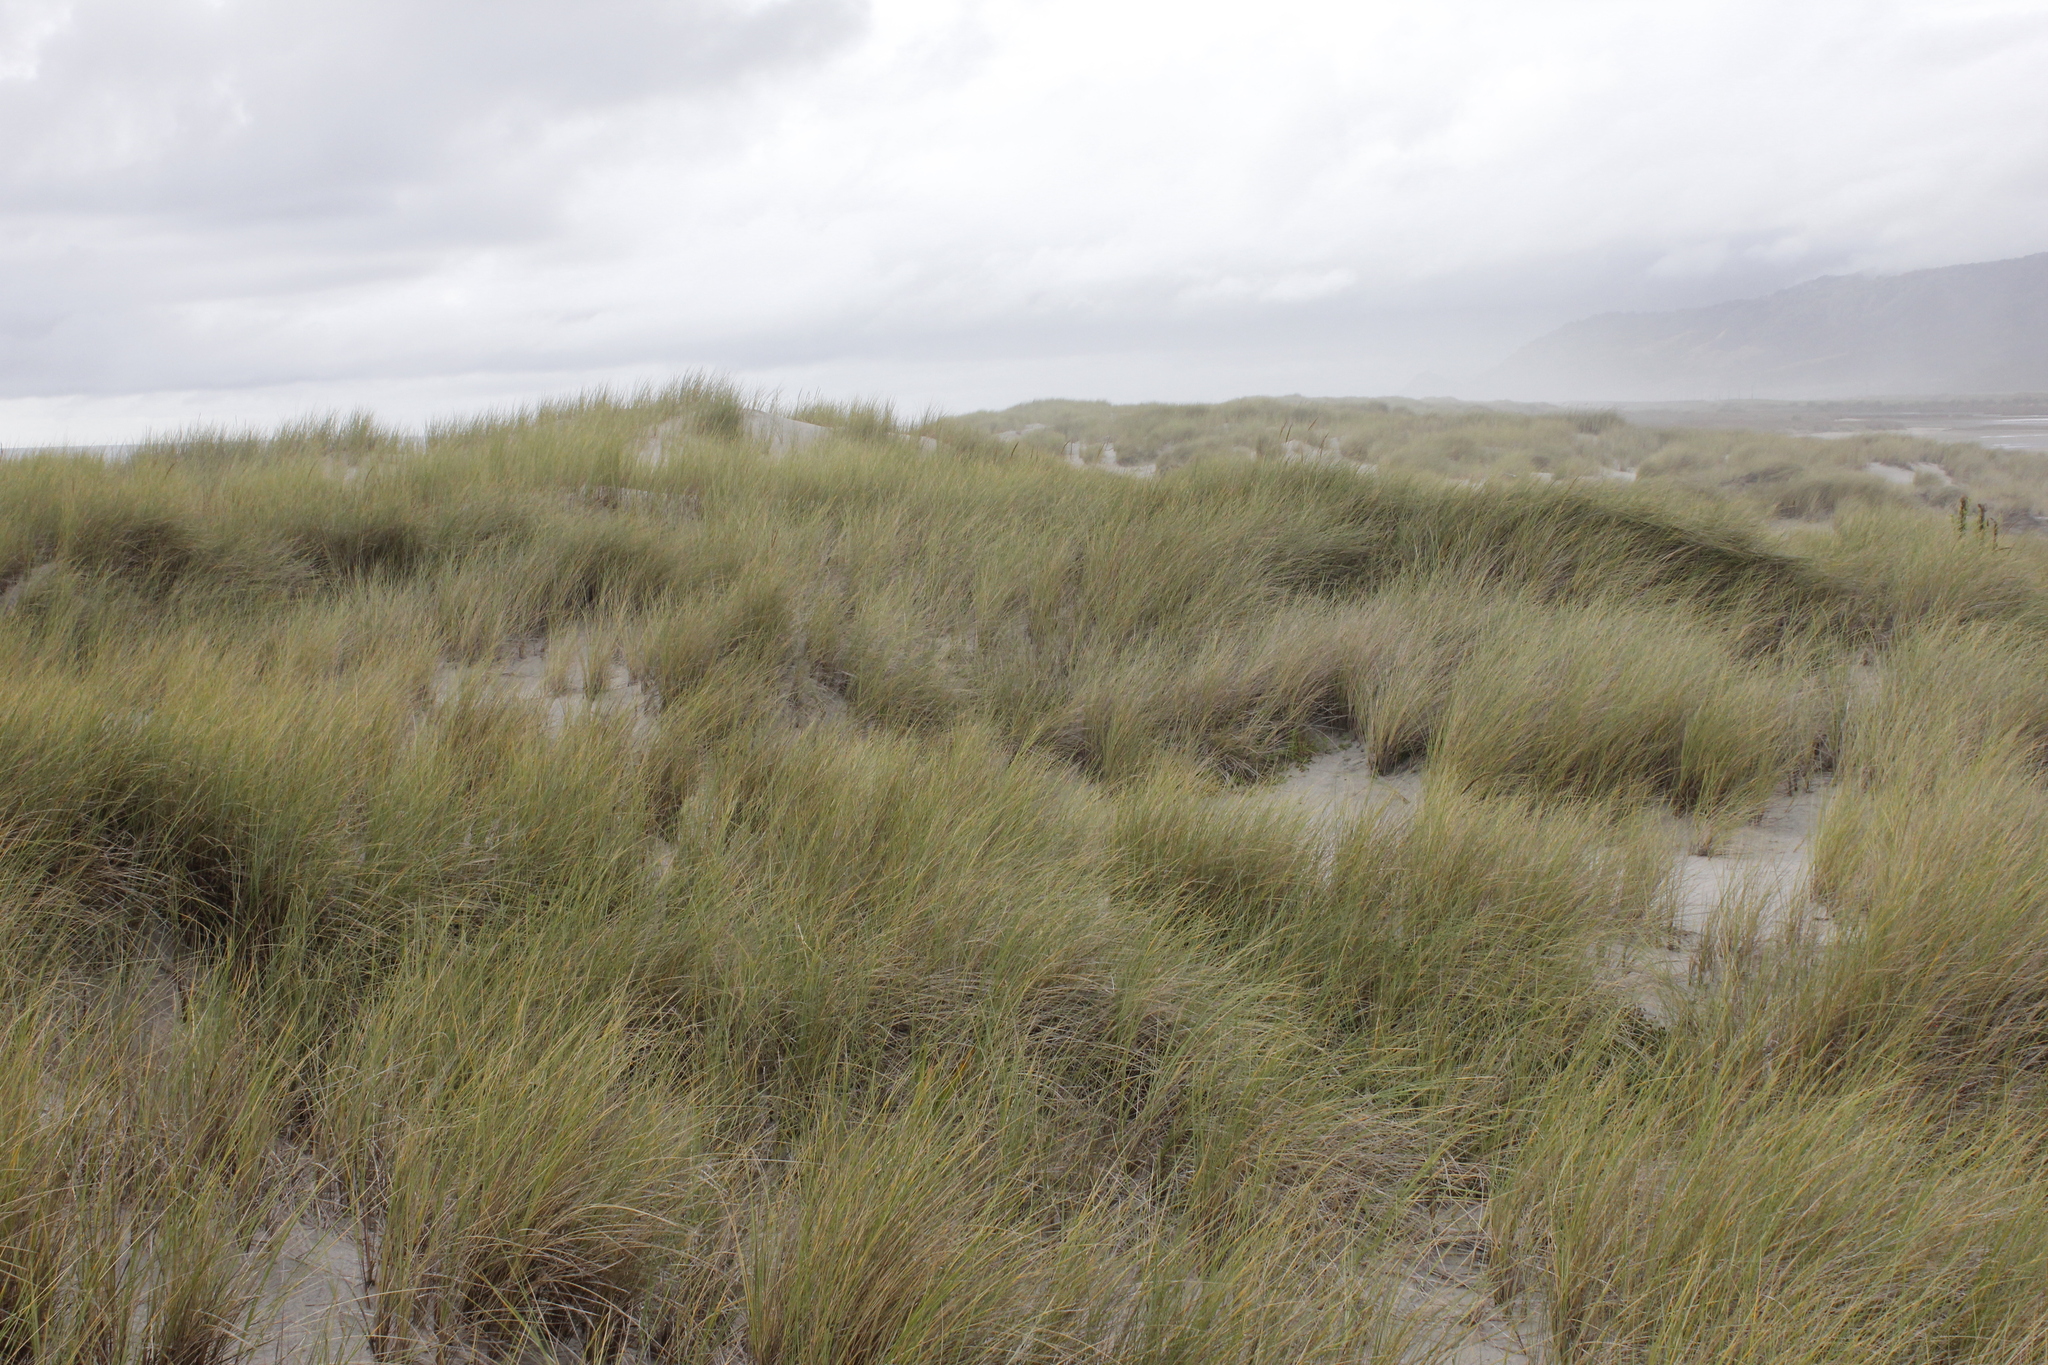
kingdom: Plantae
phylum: Tracheophyta
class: Liliopsida
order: Poales
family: Poaceae
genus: Calamagrostis
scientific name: Calamagrostis arenaria
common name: European beachgrass
